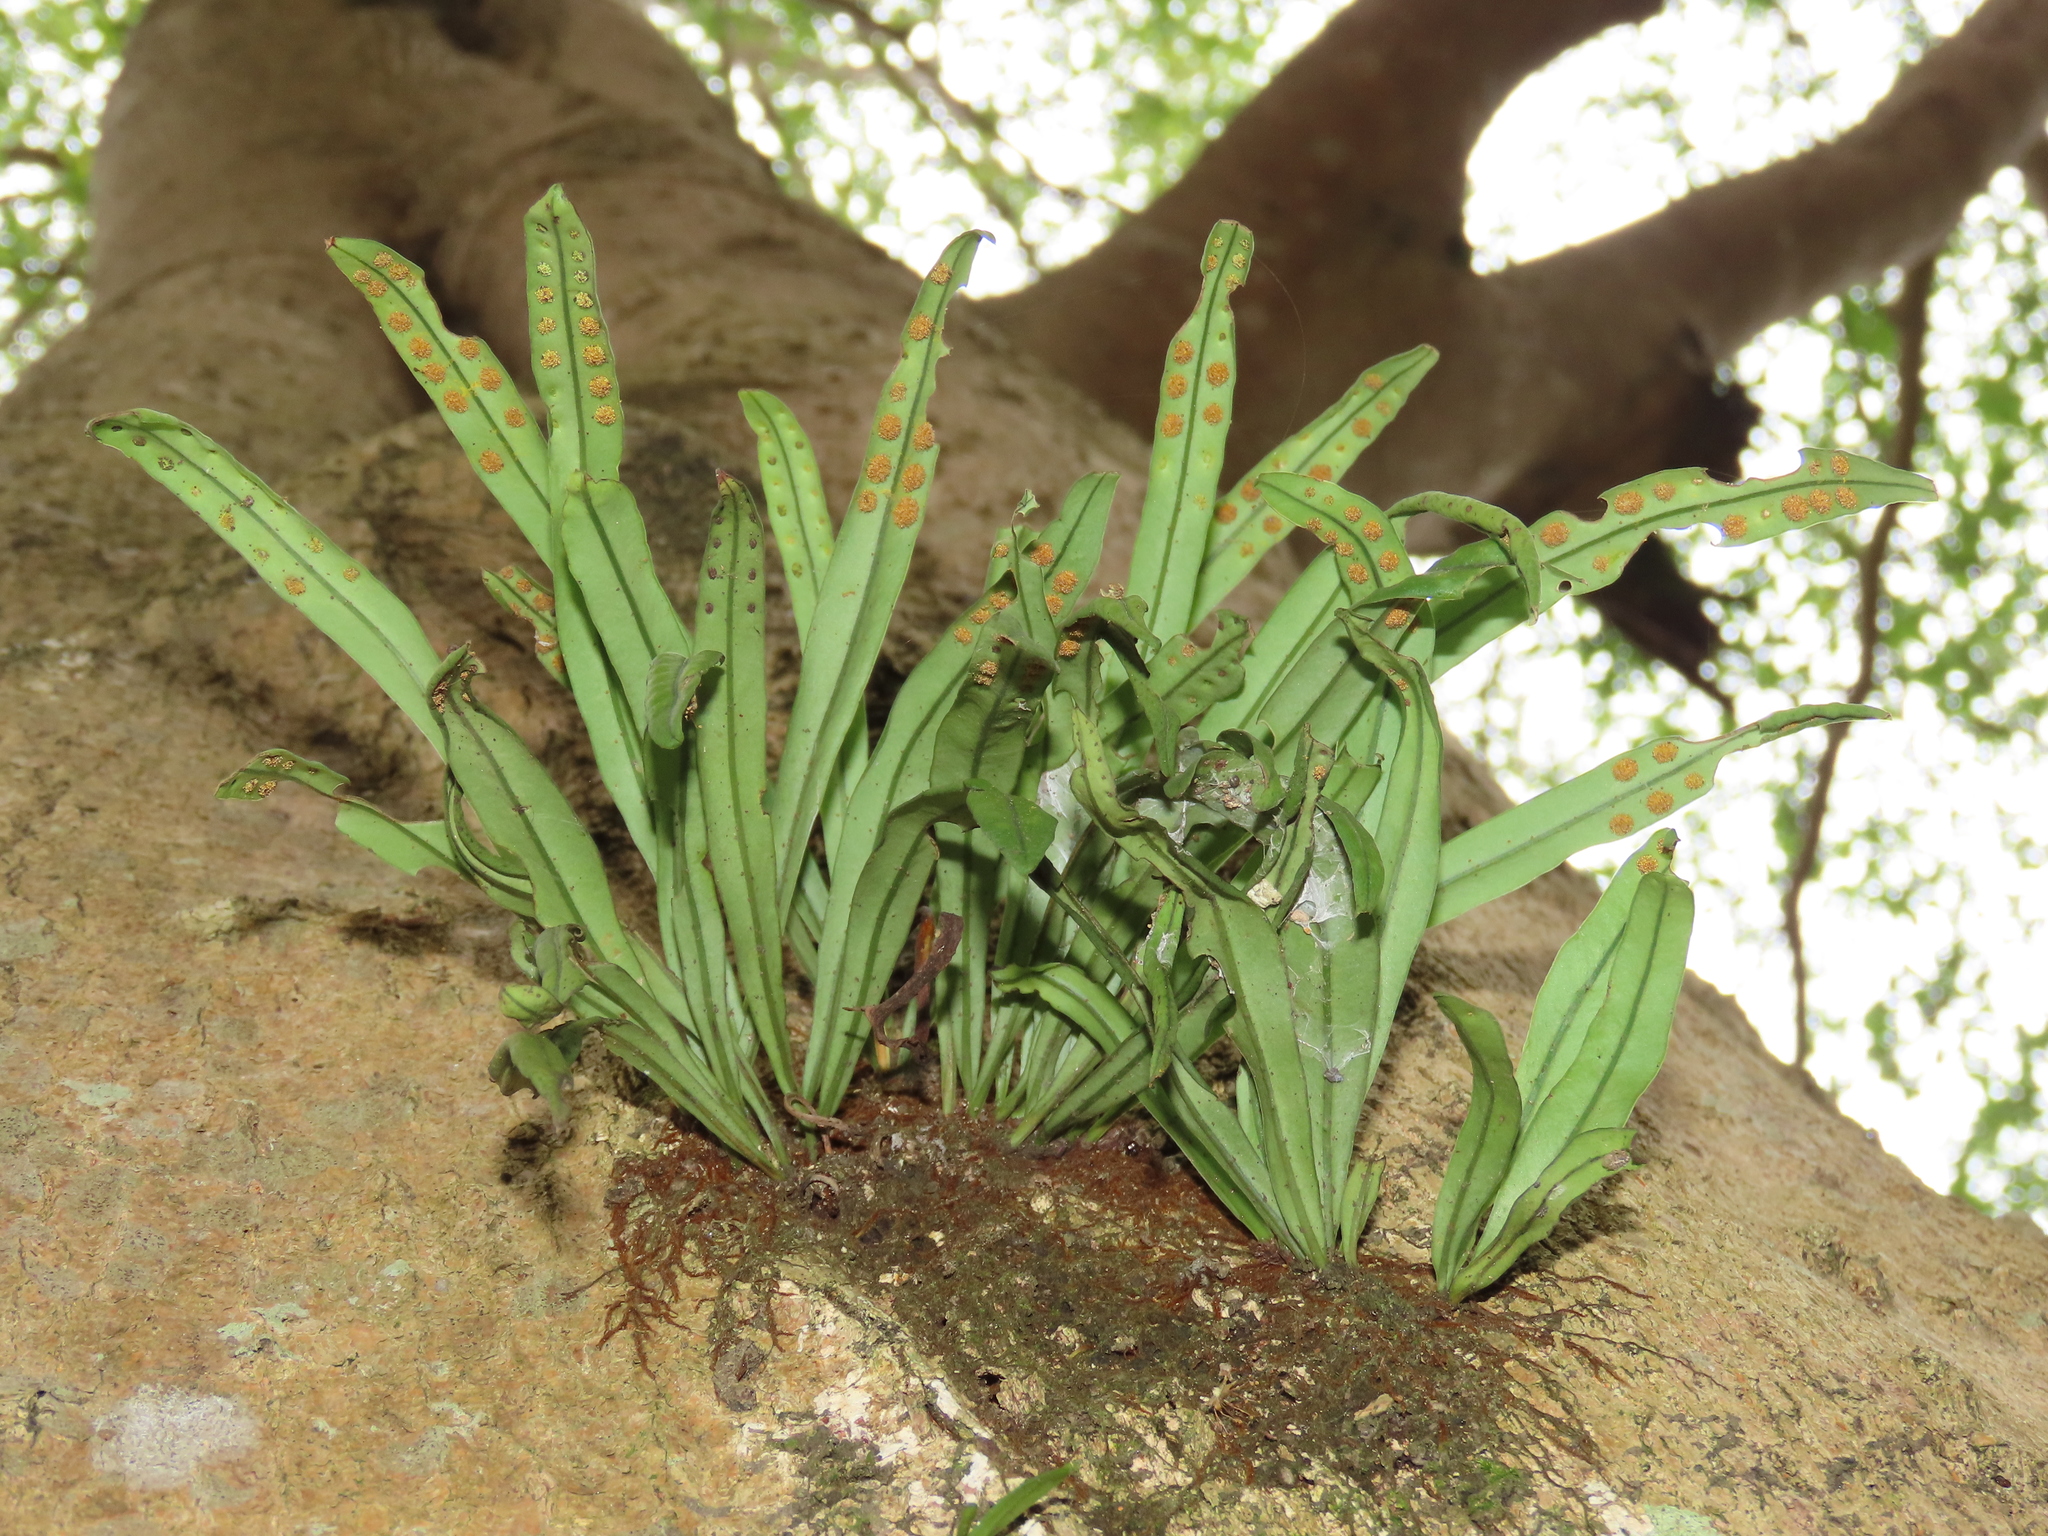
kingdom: Plantae
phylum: Tracheophyta
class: Polypodiopsida
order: Polypodiales
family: Polypodiaceae
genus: Lepisorus
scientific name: Lepisorus thunbergianus
